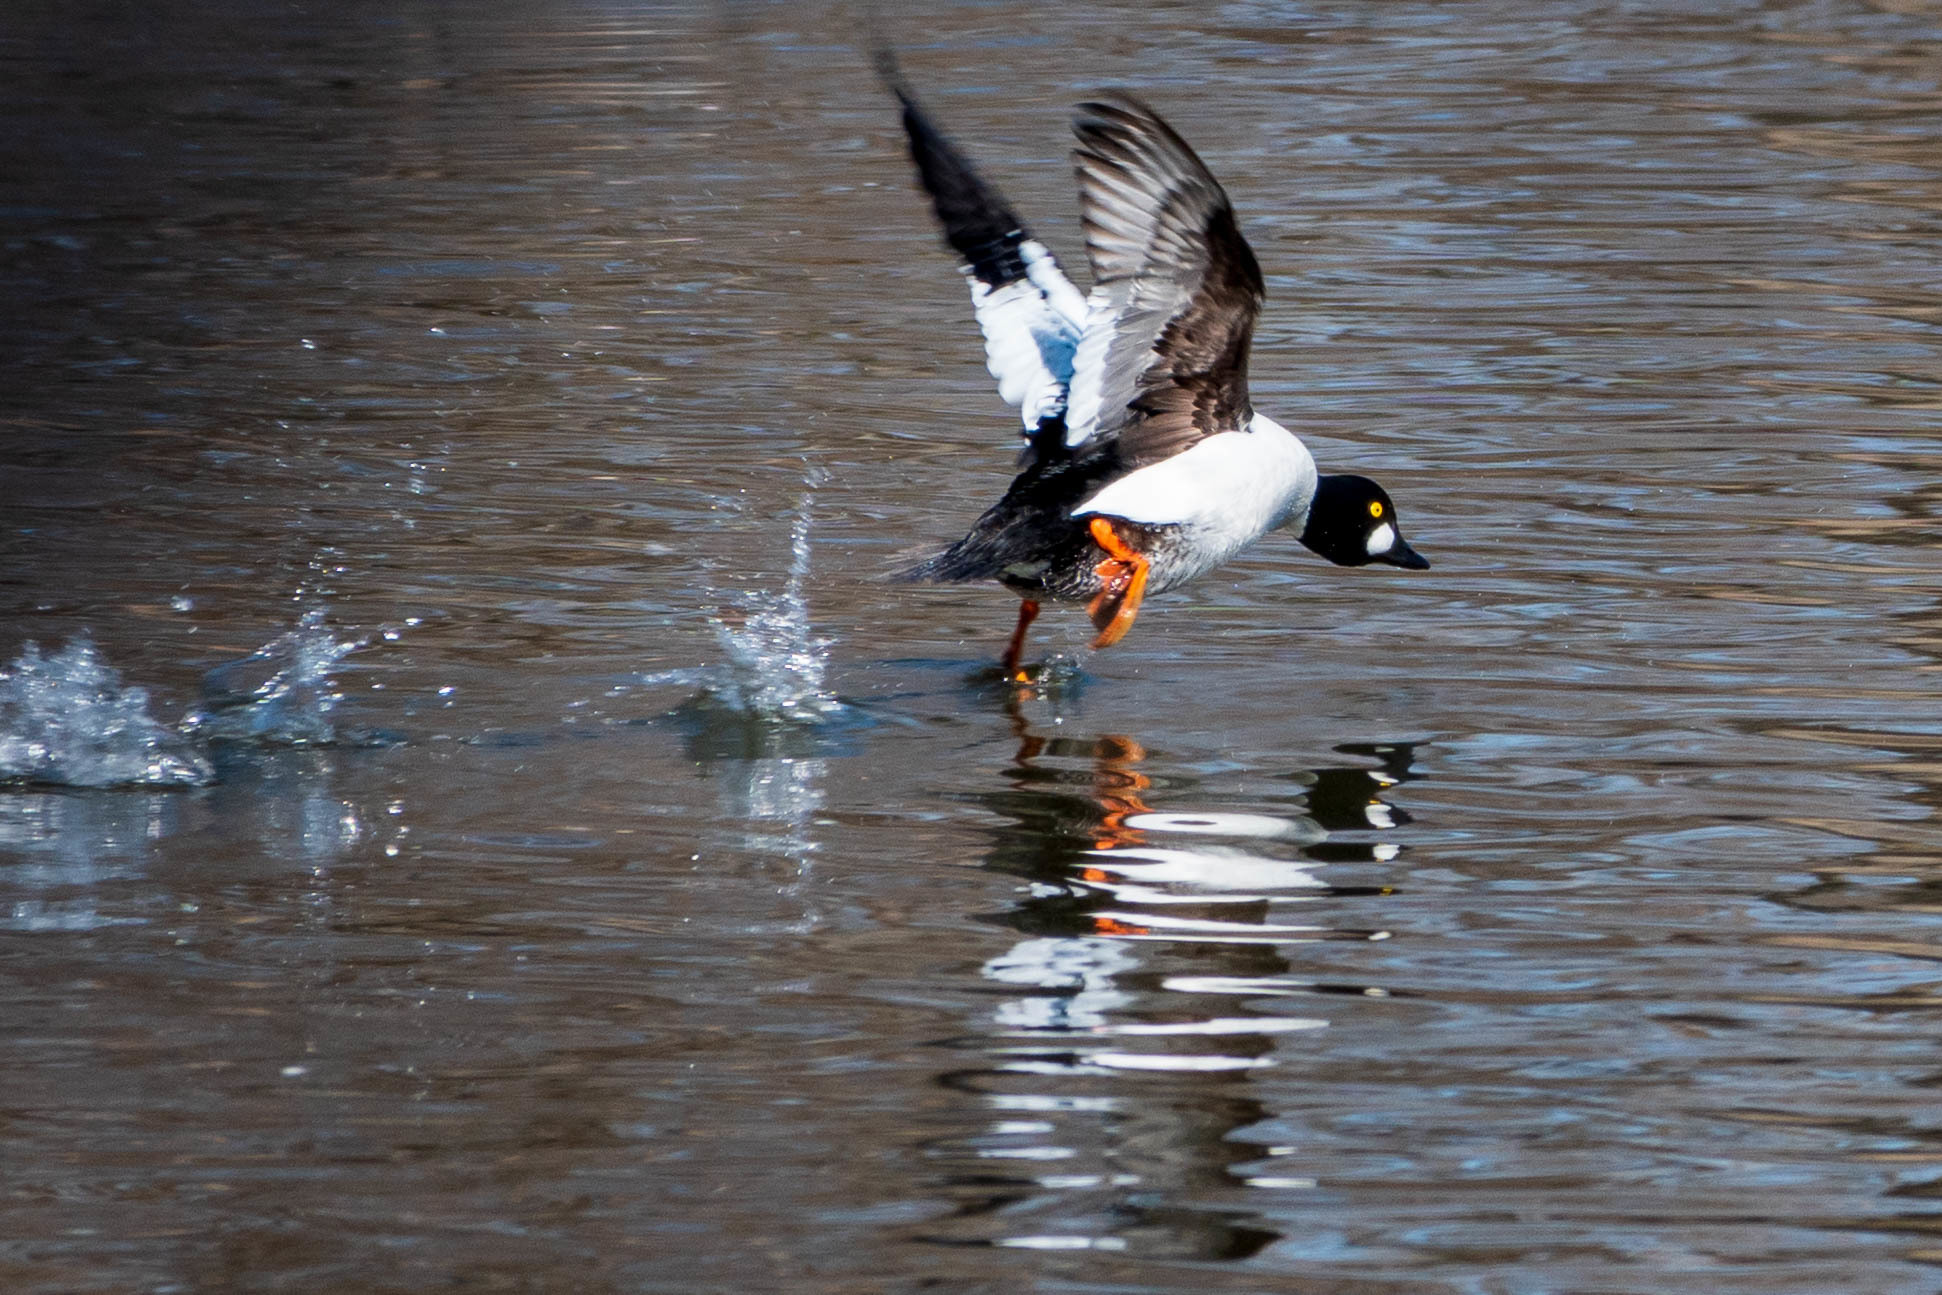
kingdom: Animalia
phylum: Chordata
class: Aves
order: Anseriformes
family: Anatidae
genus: Bucephala
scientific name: Bucephala clangula
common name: Common goldeneye
